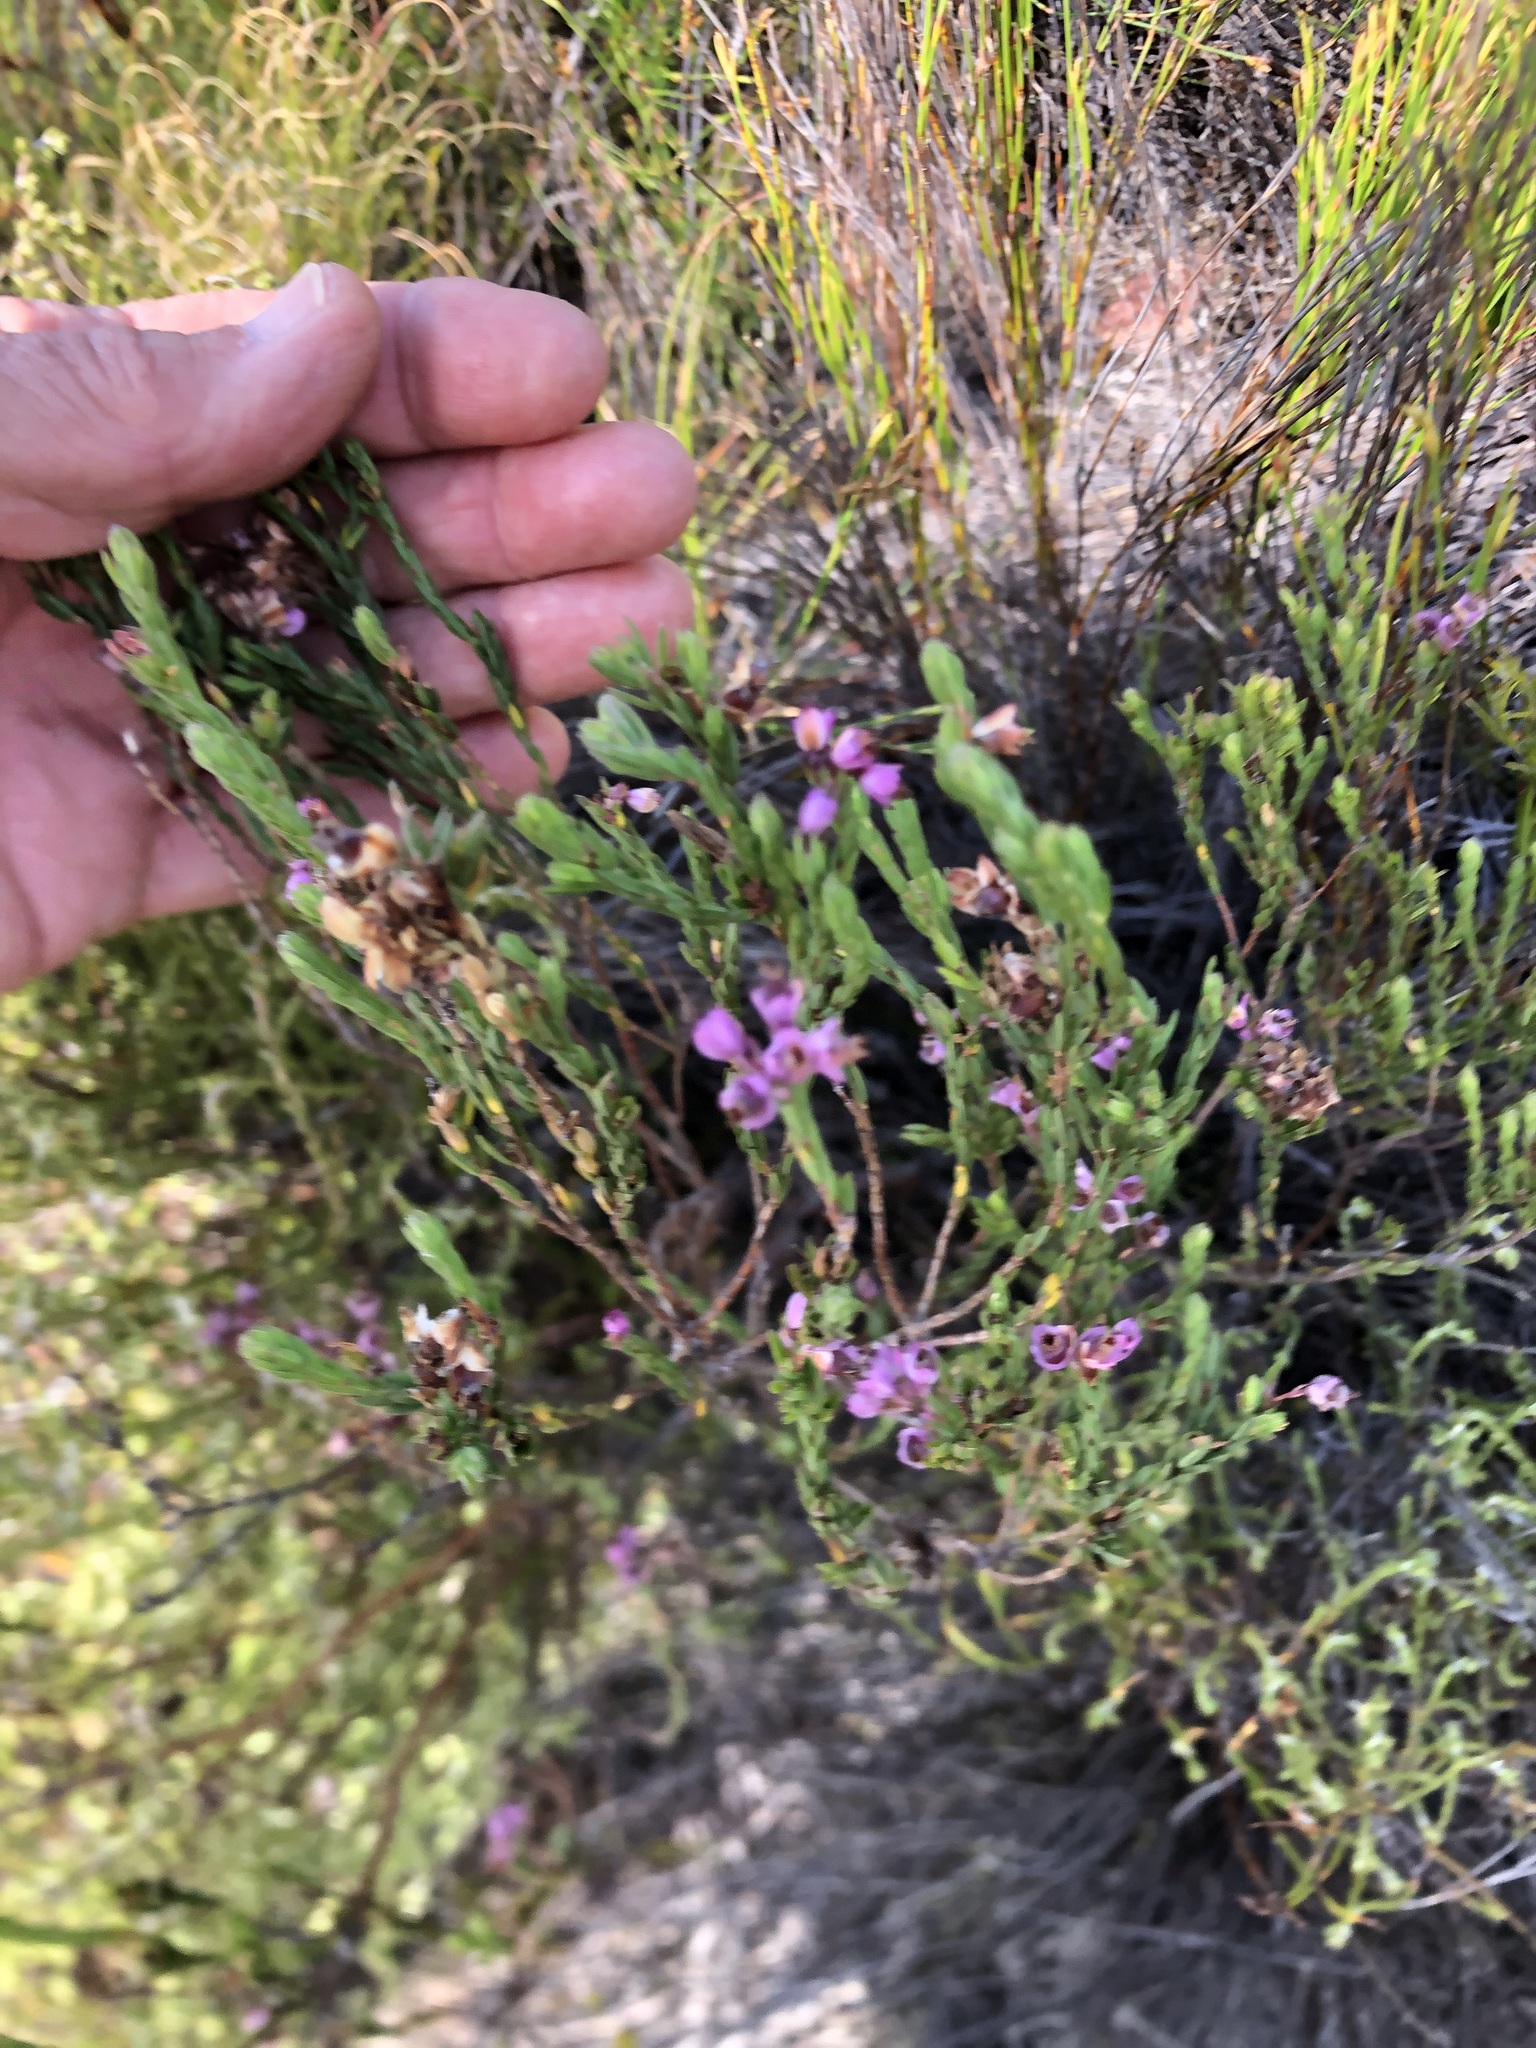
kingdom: Plantae
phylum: Tracheophyta
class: Magnoliopsida
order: Ericales
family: Ericaceae
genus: Erica
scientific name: Erica corifolia
